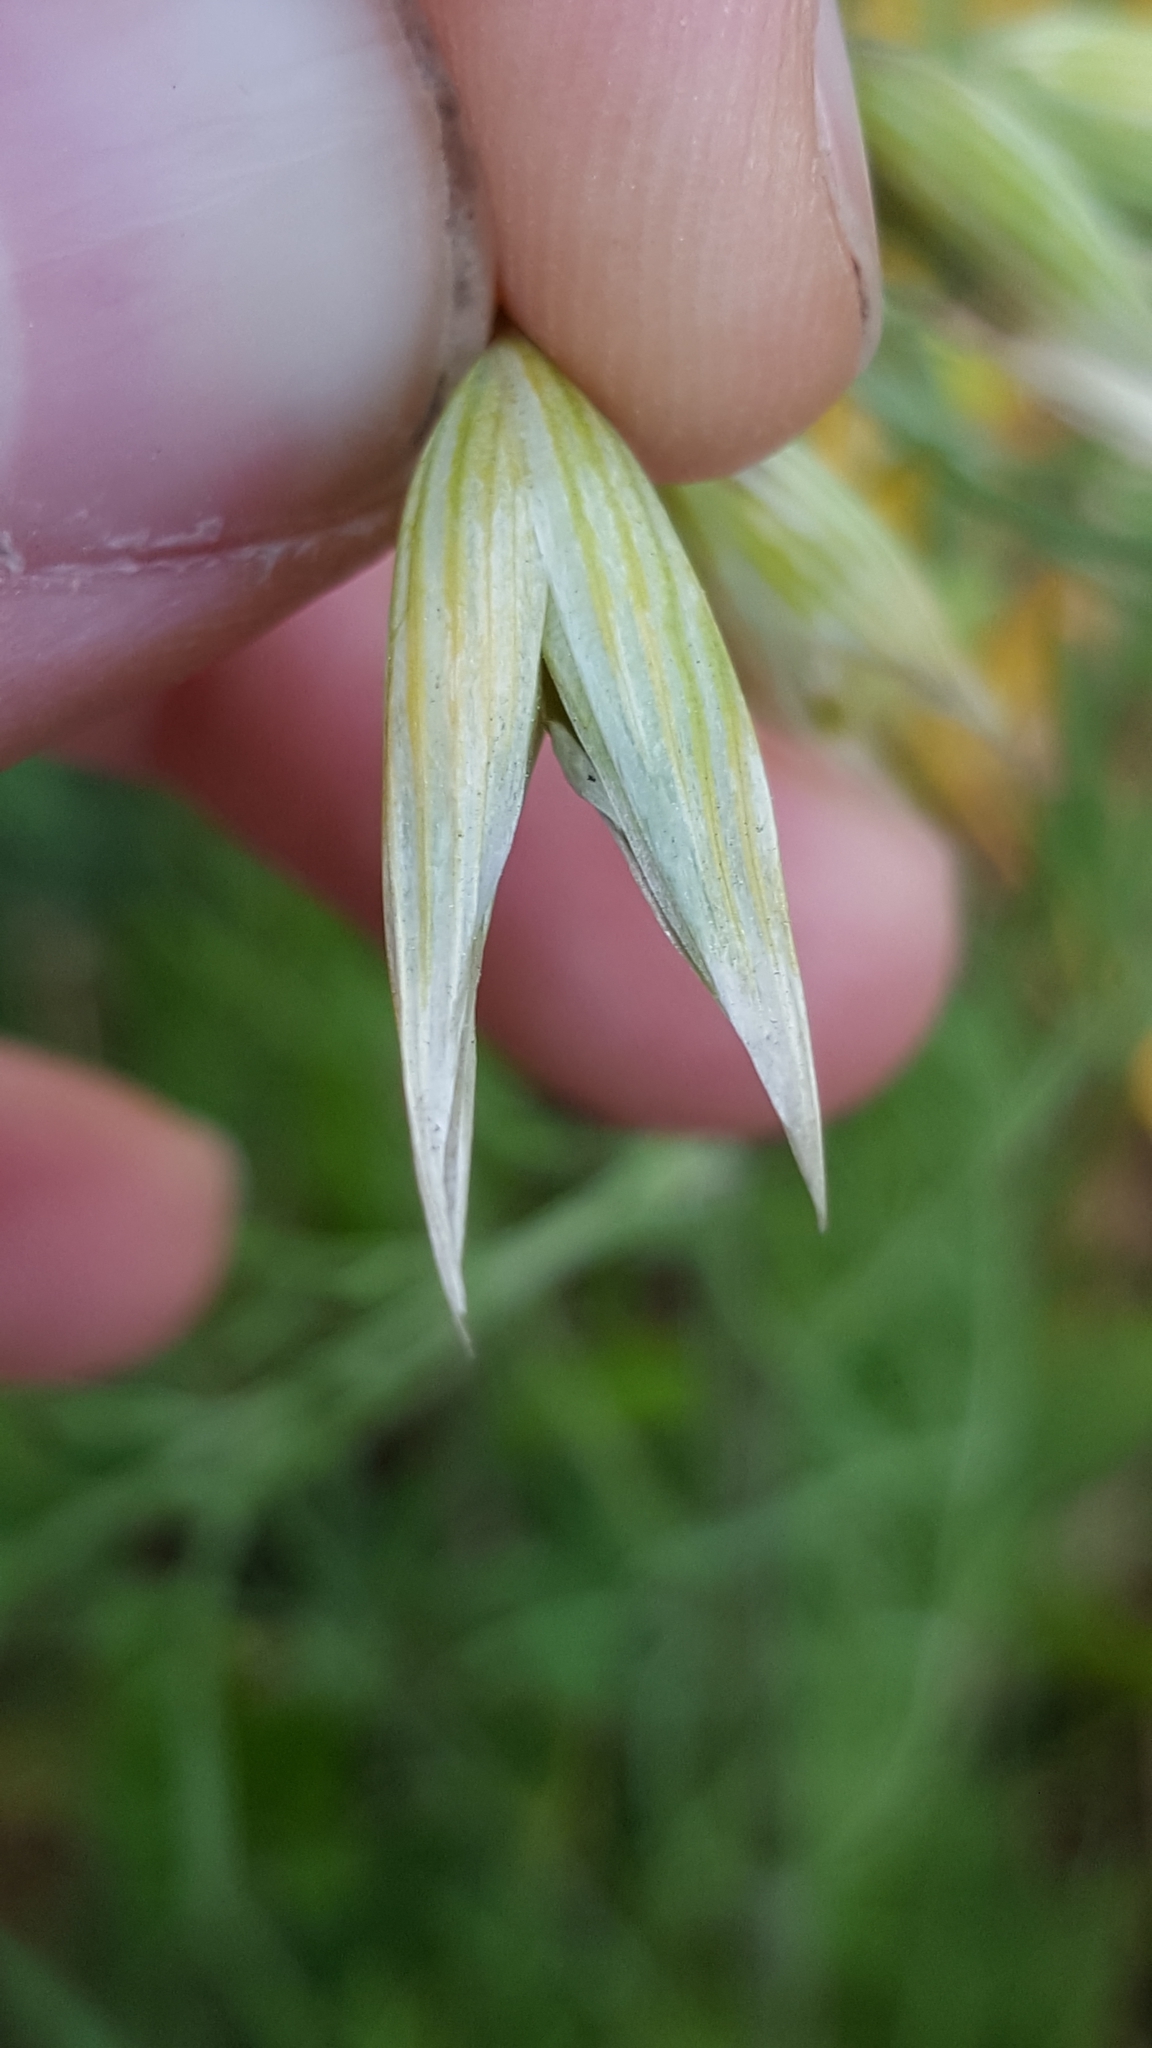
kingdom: Plantae
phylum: Tracheophyta
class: Liliopsida
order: Poales
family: Poaceae
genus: Avena
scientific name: Avena sativa
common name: Oat
